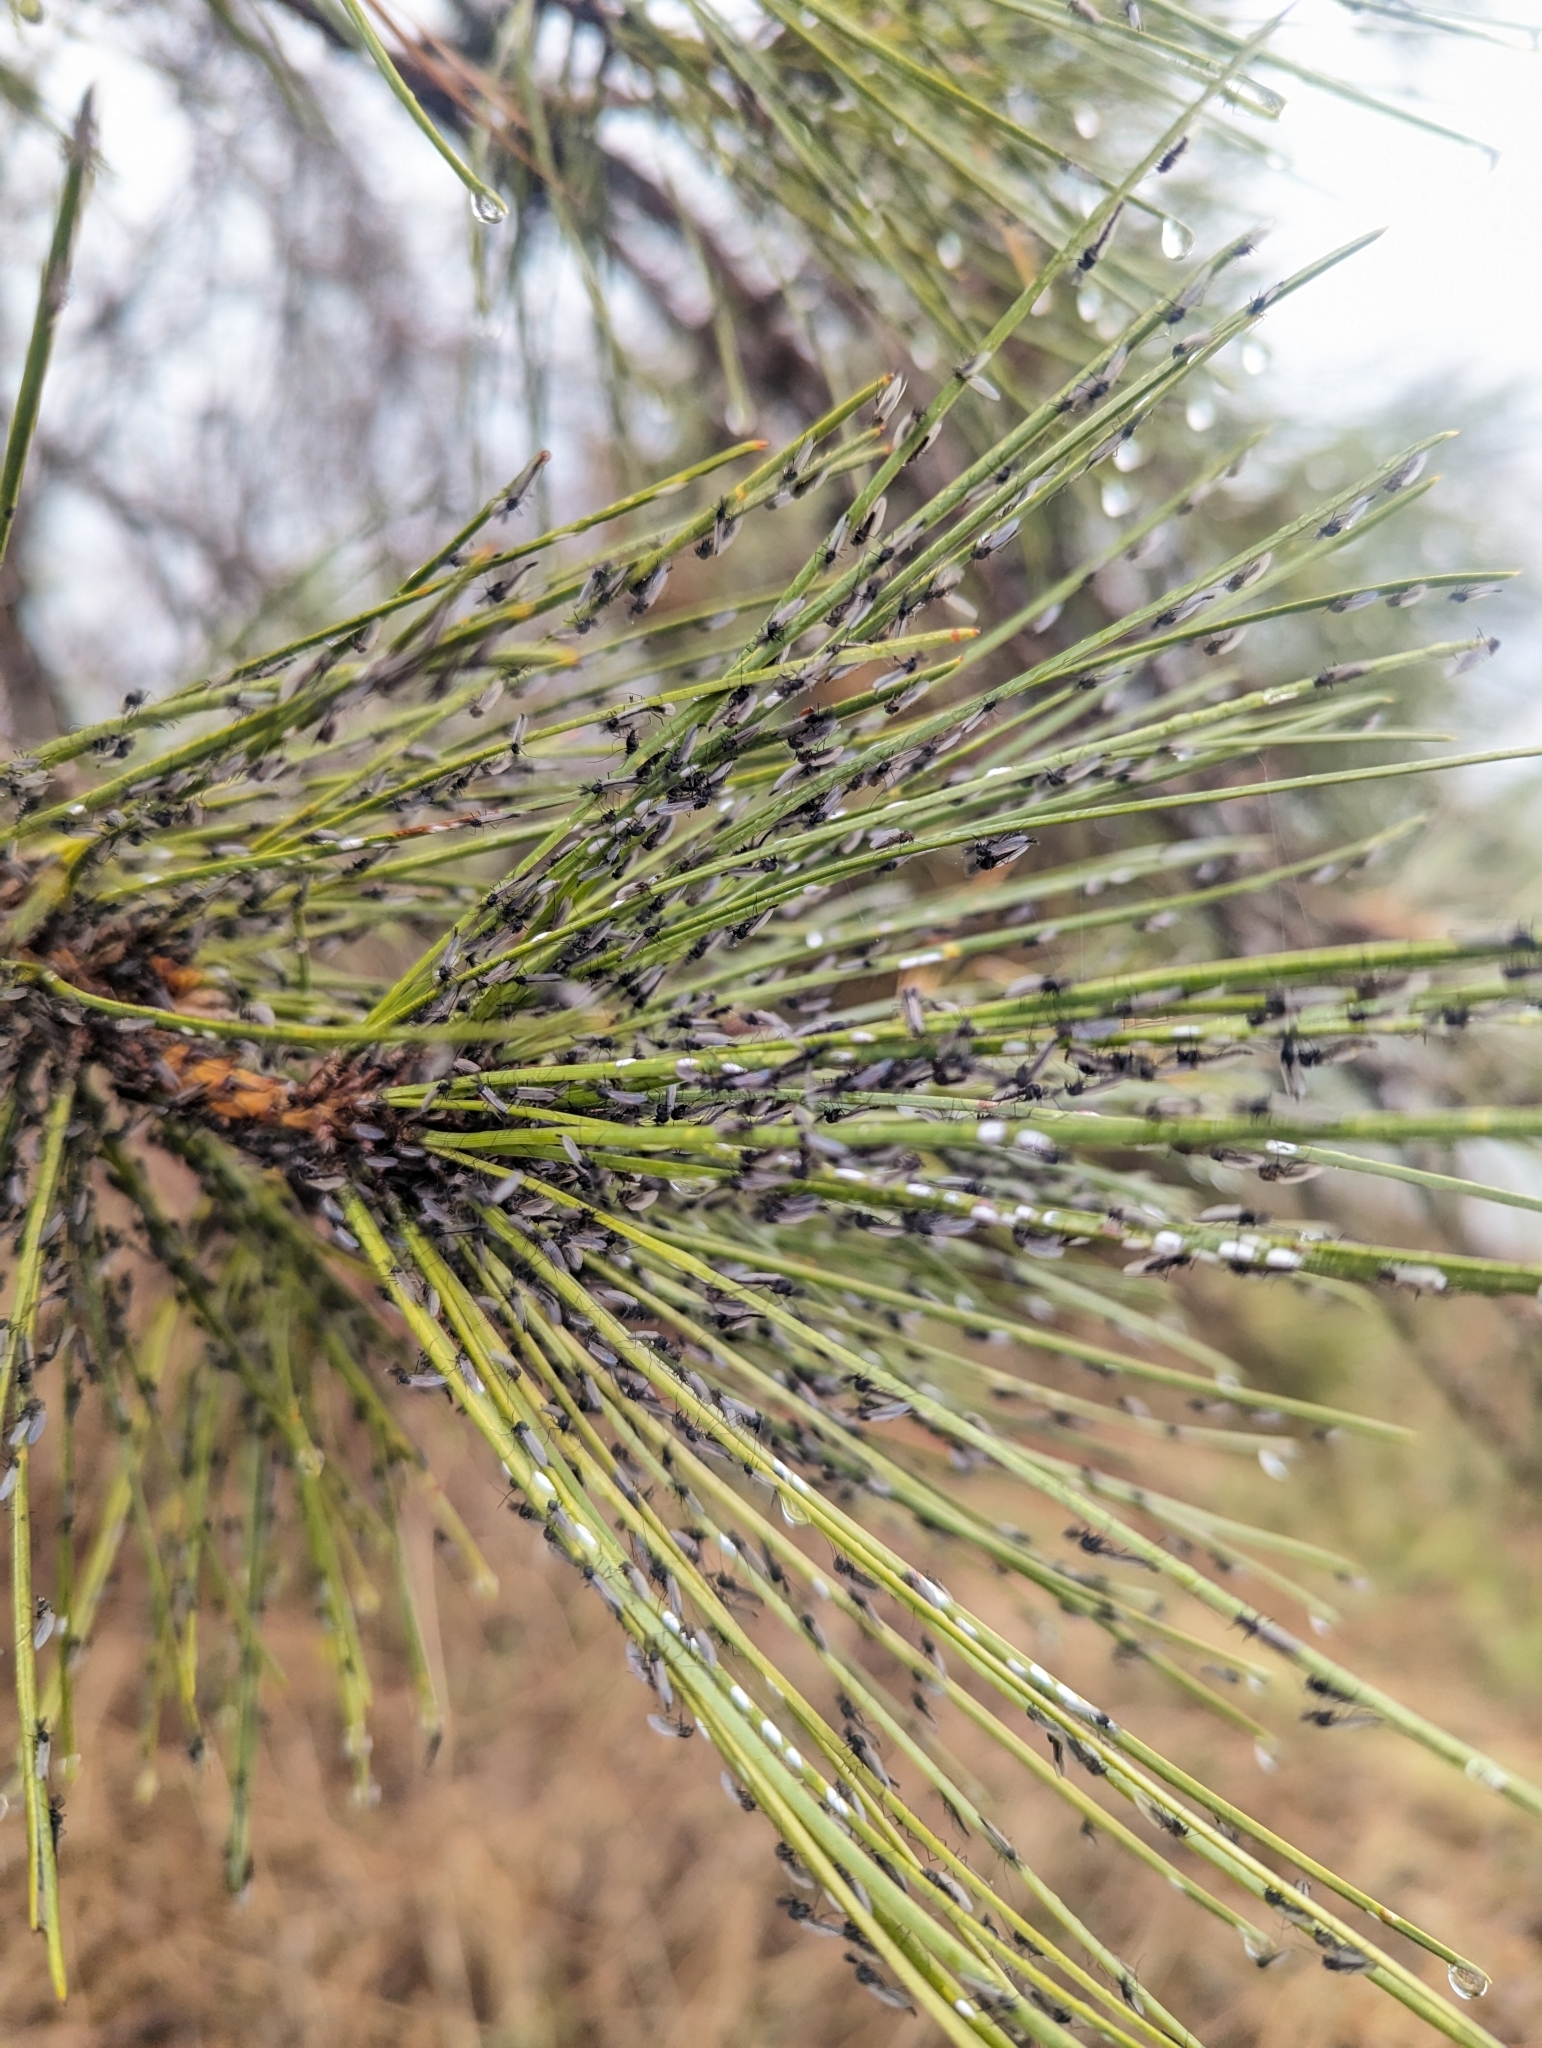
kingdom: Plantae
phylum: Tracheophyta
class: Pinopsida
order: Pinales
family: Pinaceae
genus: Pinus
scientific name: Pinus rigida
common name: Pitch pine
